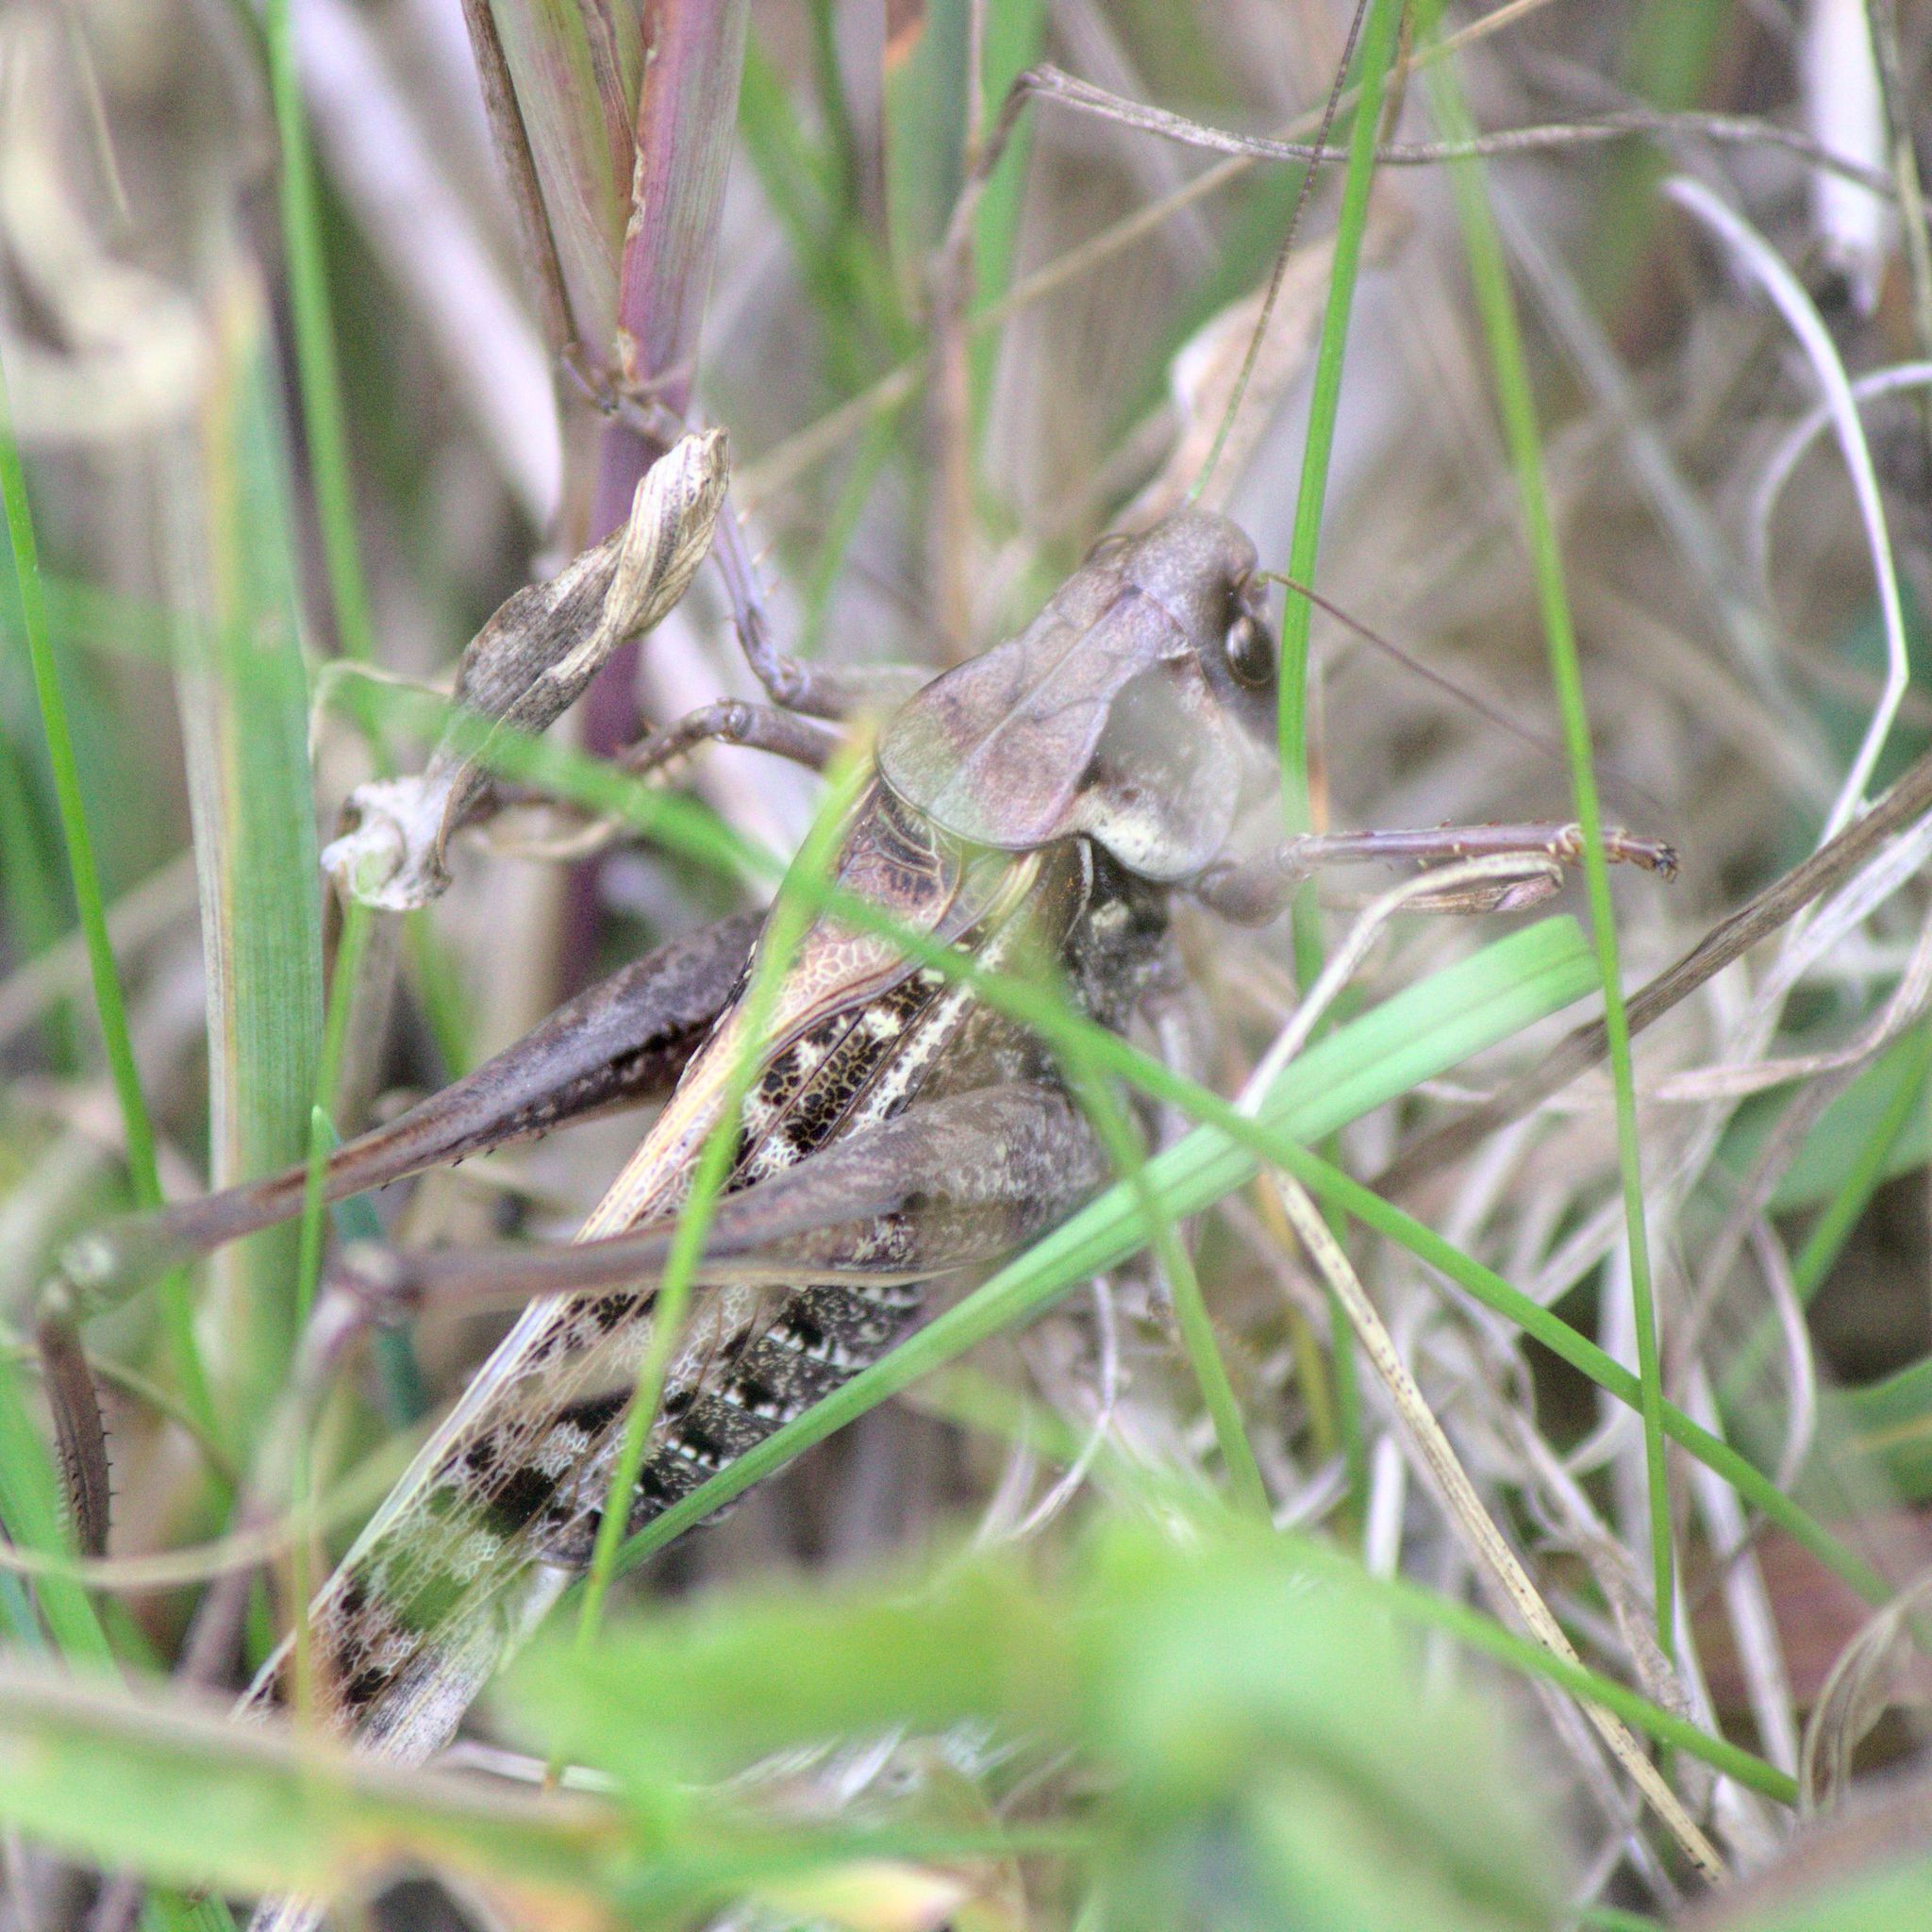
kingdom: Animalia
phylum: Arthropoda
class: Insecta
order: Orthoptera
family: Tettigoniidae
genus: Decticus
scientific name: Decticus verrucivorus
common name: Wart-biter
